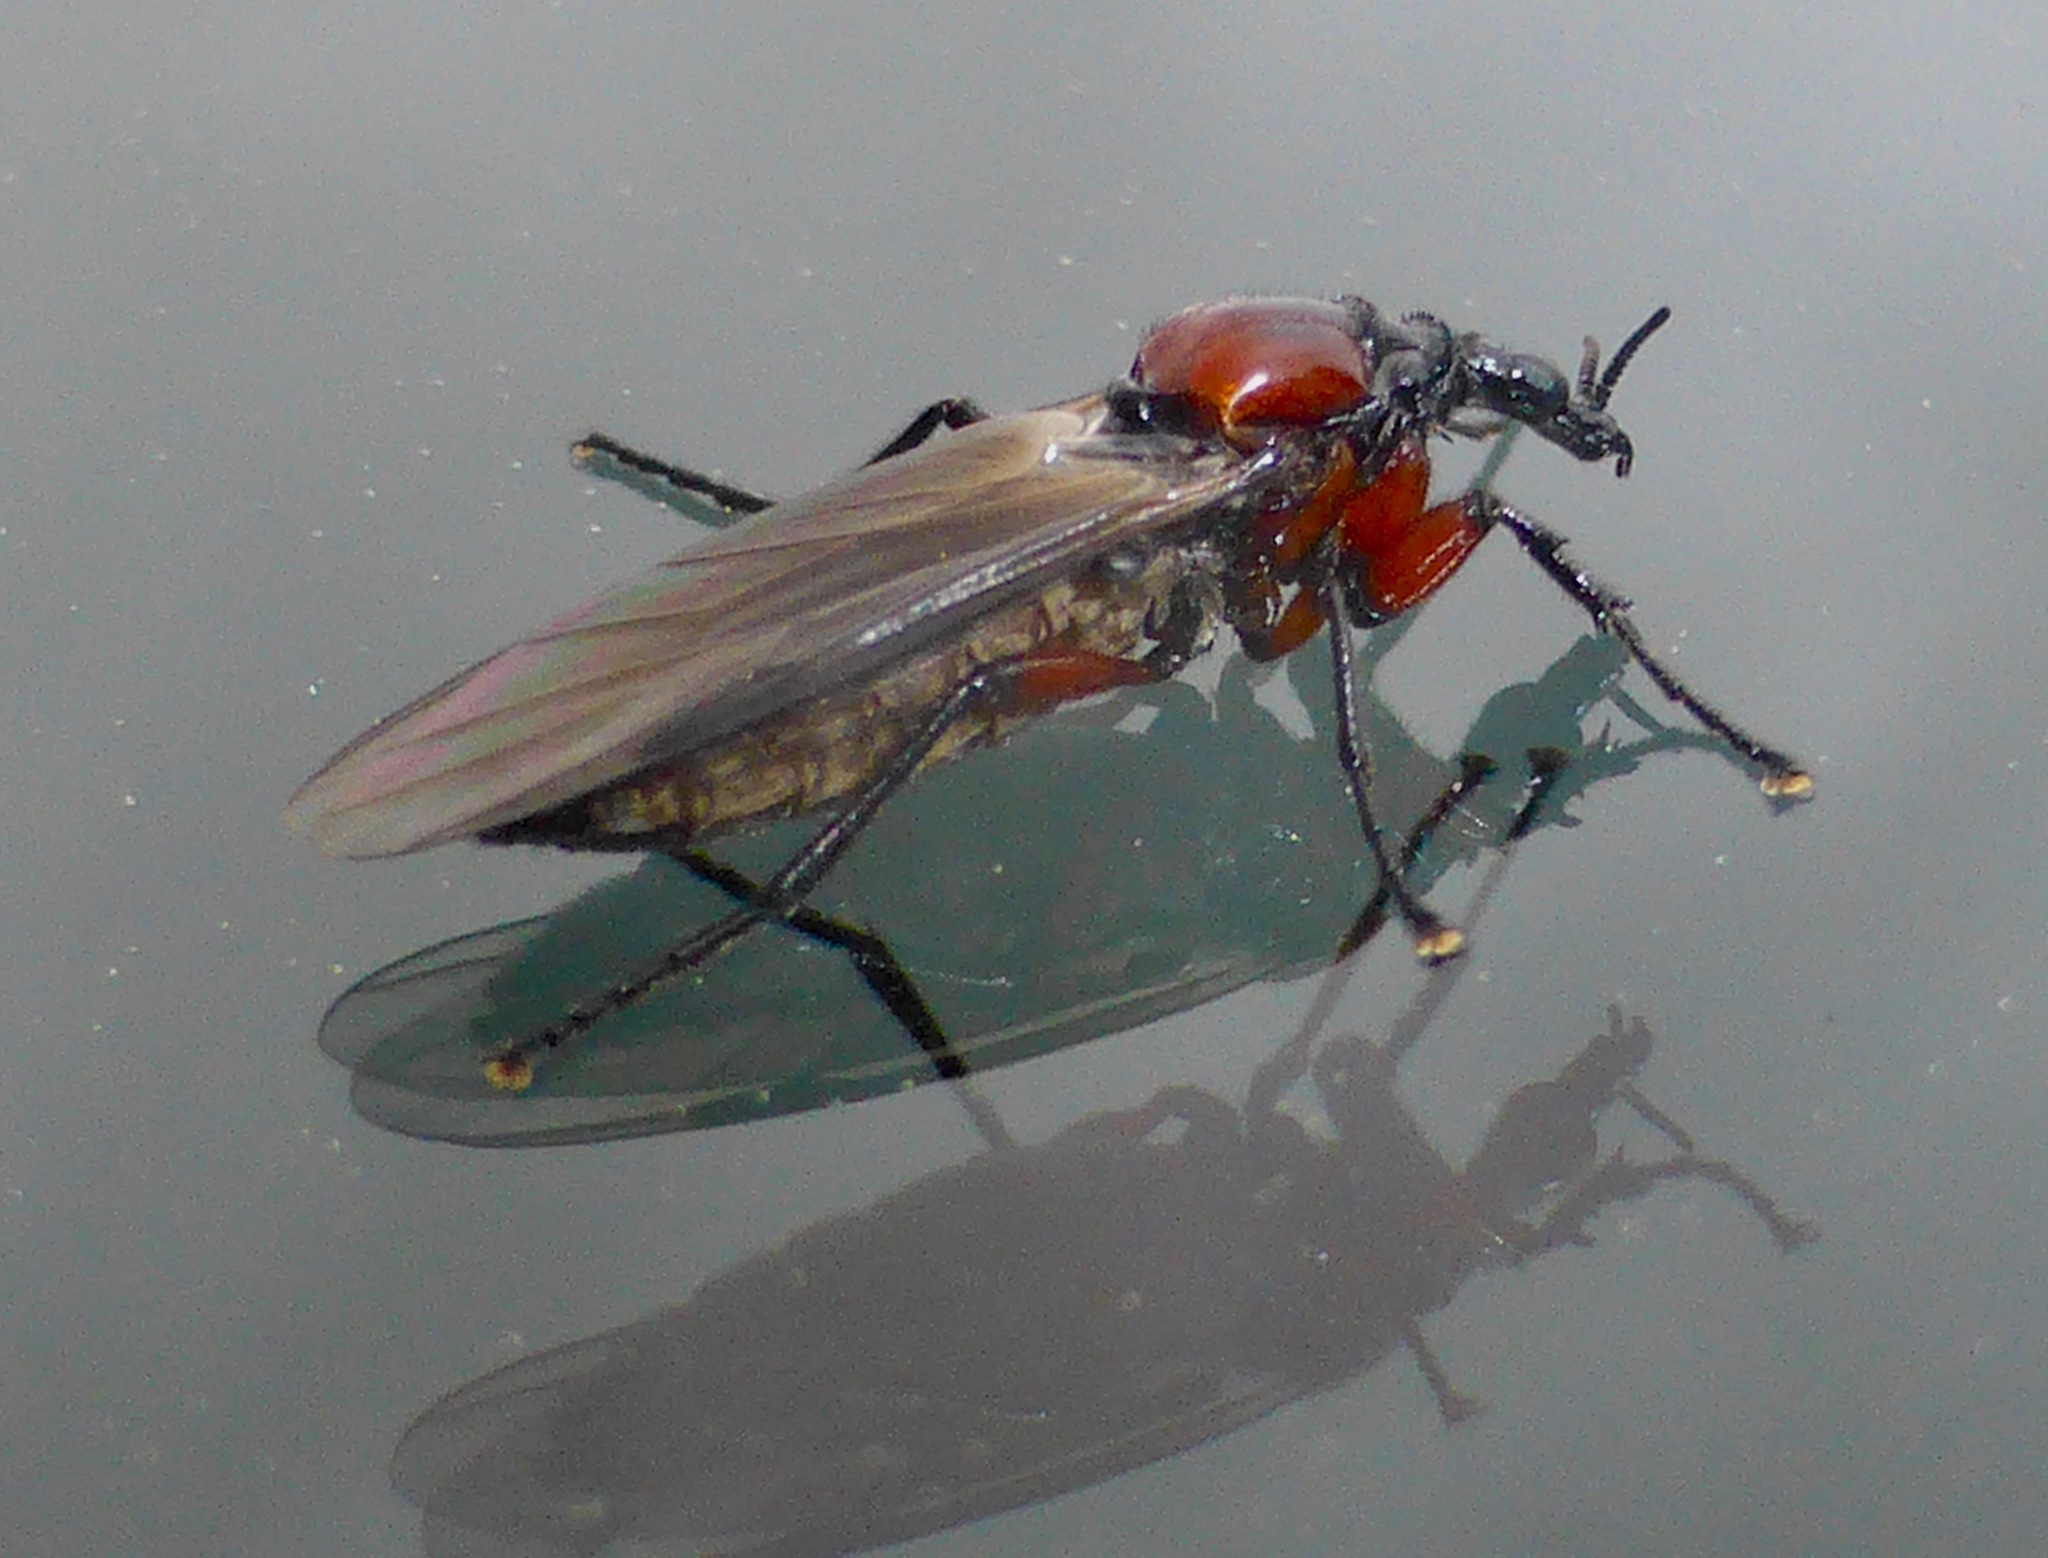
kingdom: Animalia
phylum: Arthropoda
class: Insecta
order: Diptera
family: Bibionidae
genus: Dilophus
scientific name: Dilophus nigrostigma
